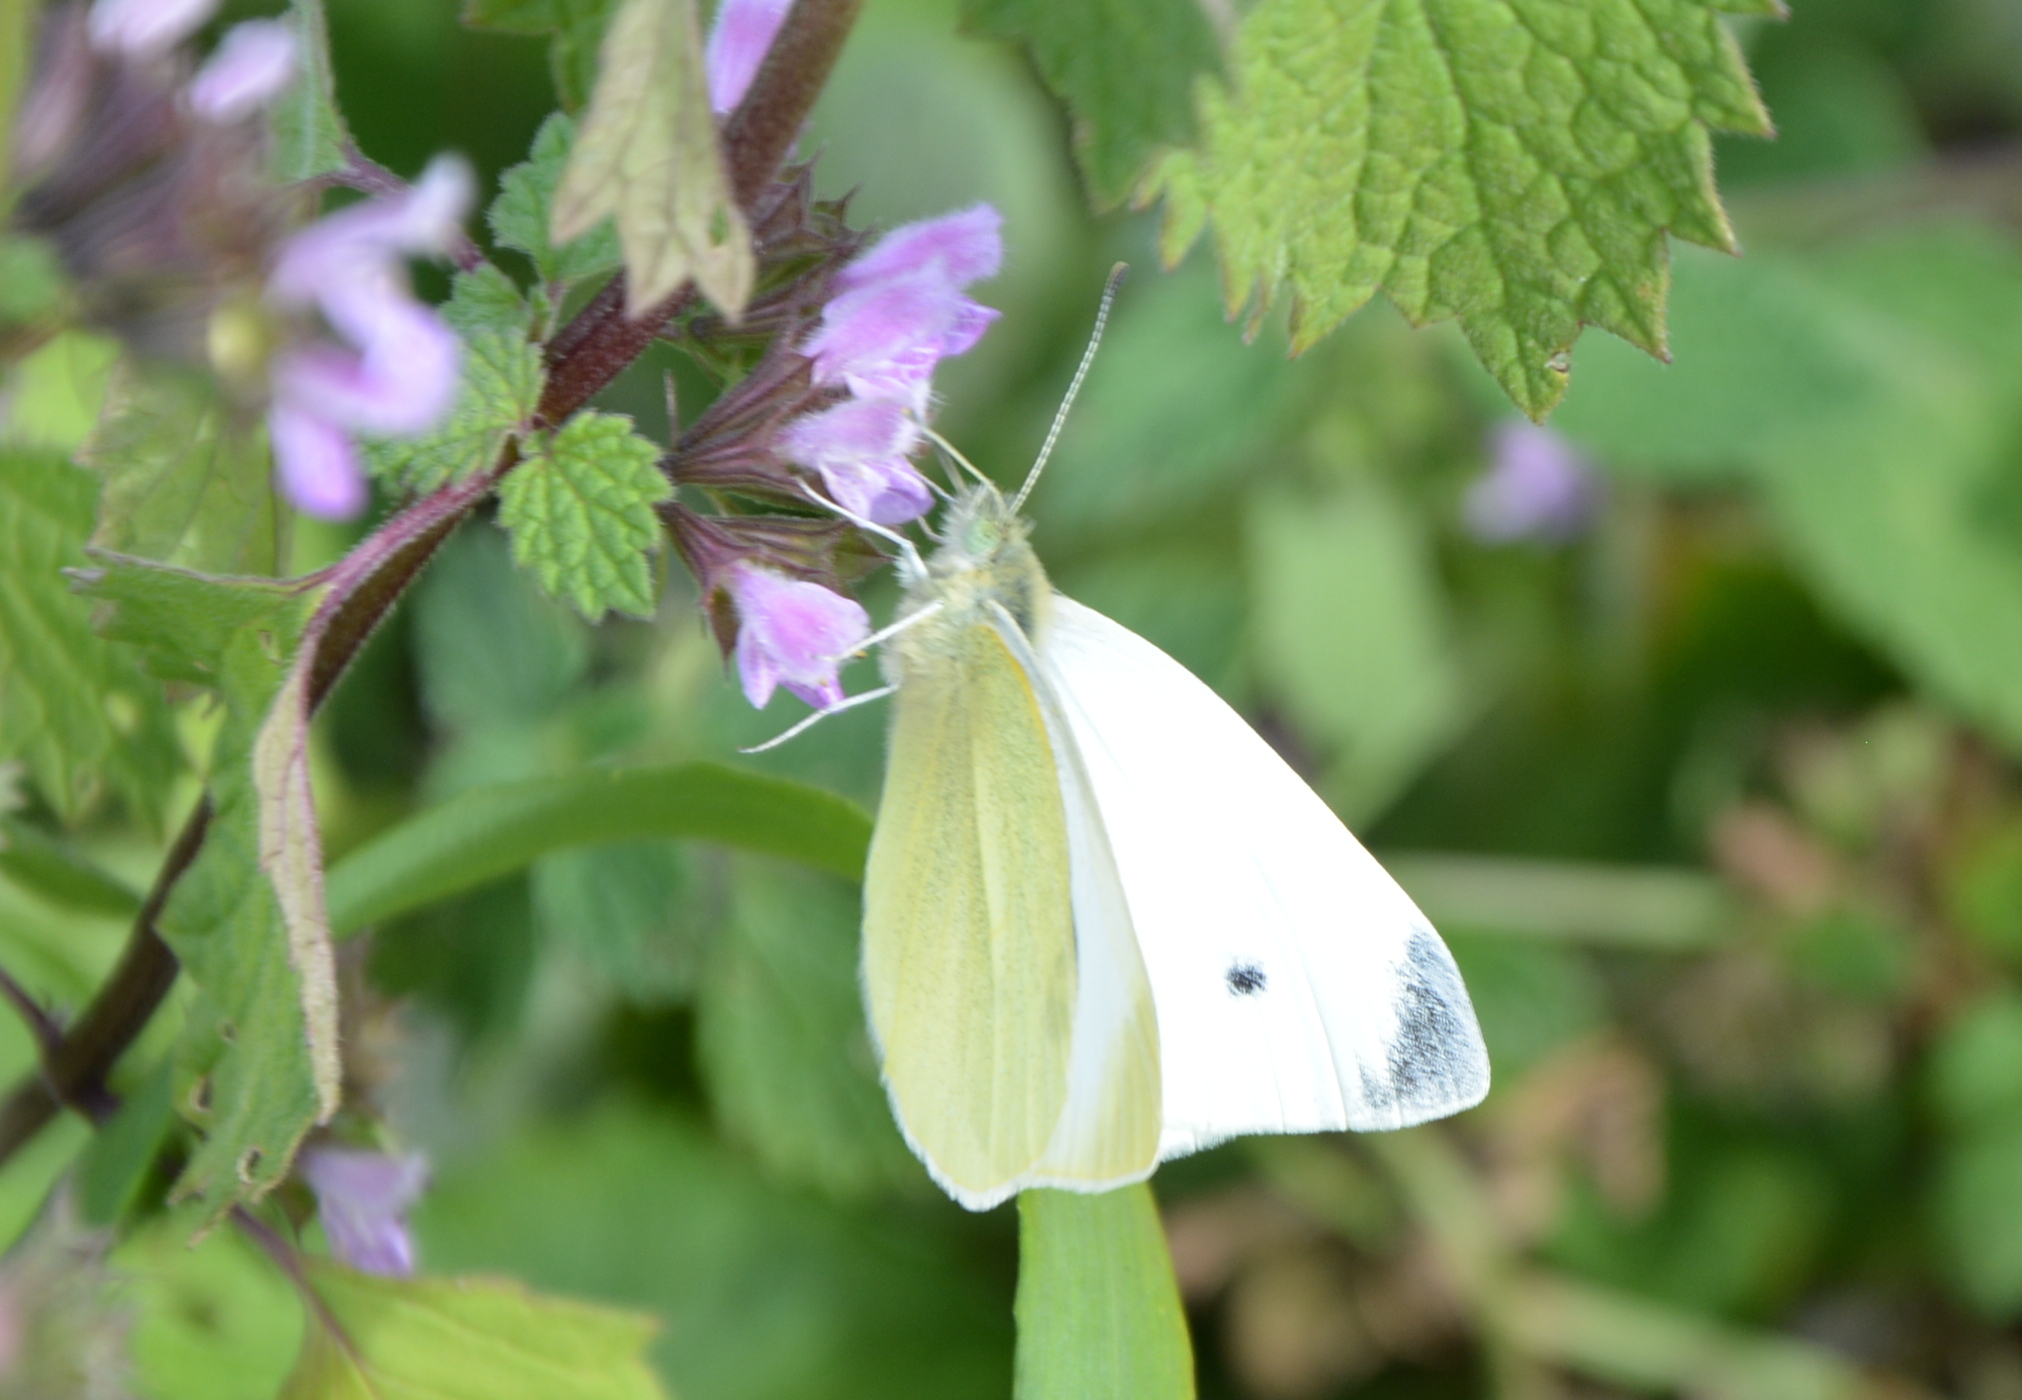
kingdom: Animalia
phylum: Arthropoda
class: Insecta
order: Lepidoptera
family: Pieridae
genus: Pieris
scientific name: Pieris rapae
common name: Small white
